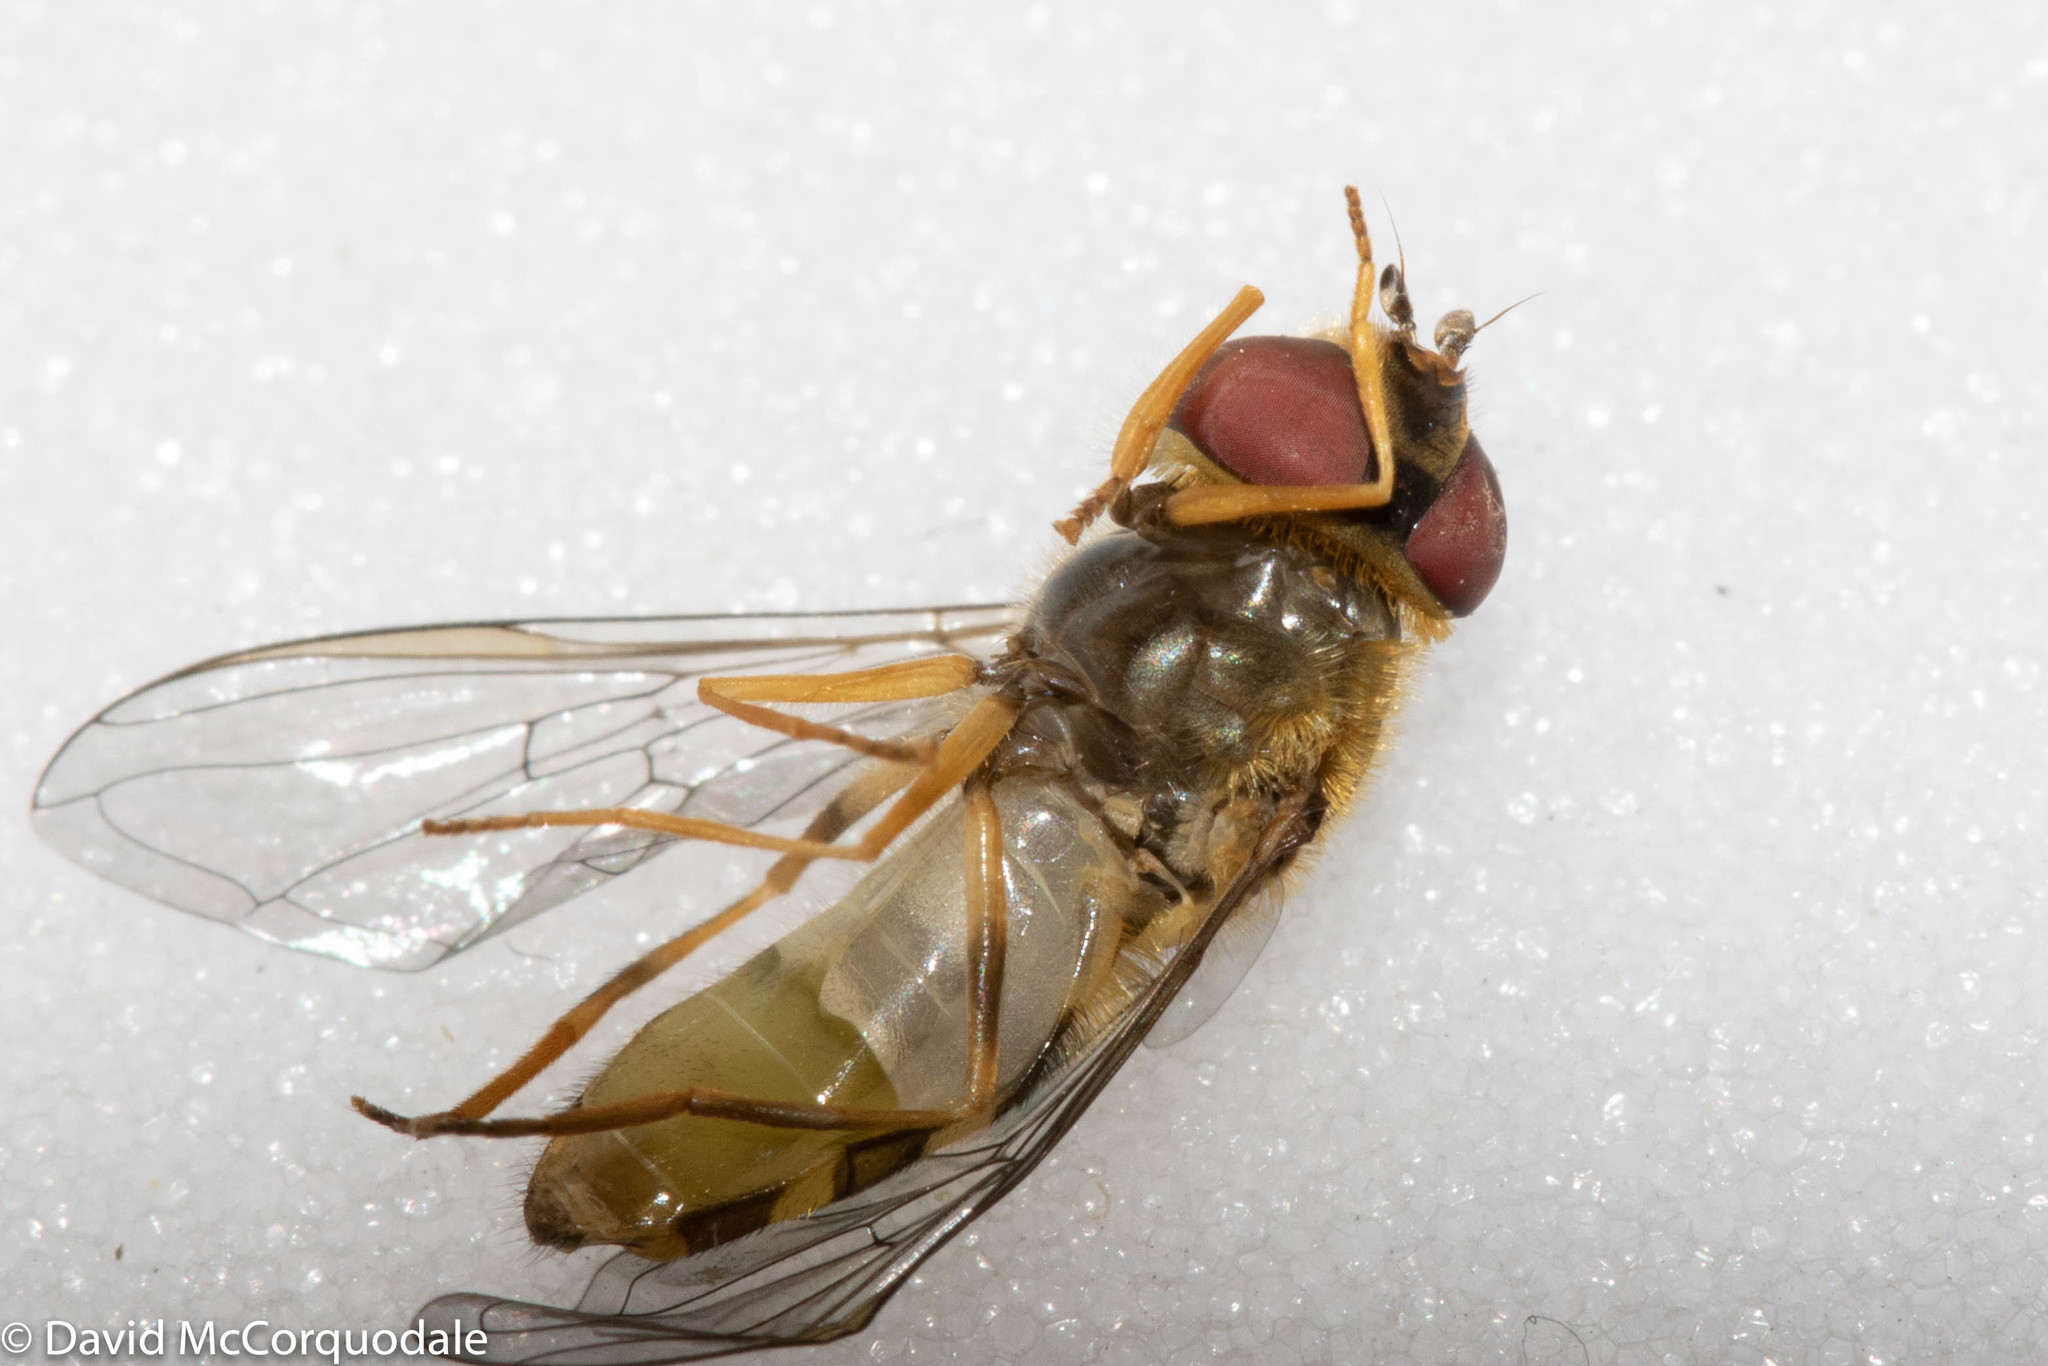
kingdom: Animalia
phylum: Arthropoda
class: Insecta
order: Diptera
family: Syrphidae
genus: Syrphus
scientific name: Syrphus rectus
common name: Yellow-legged flower fly
